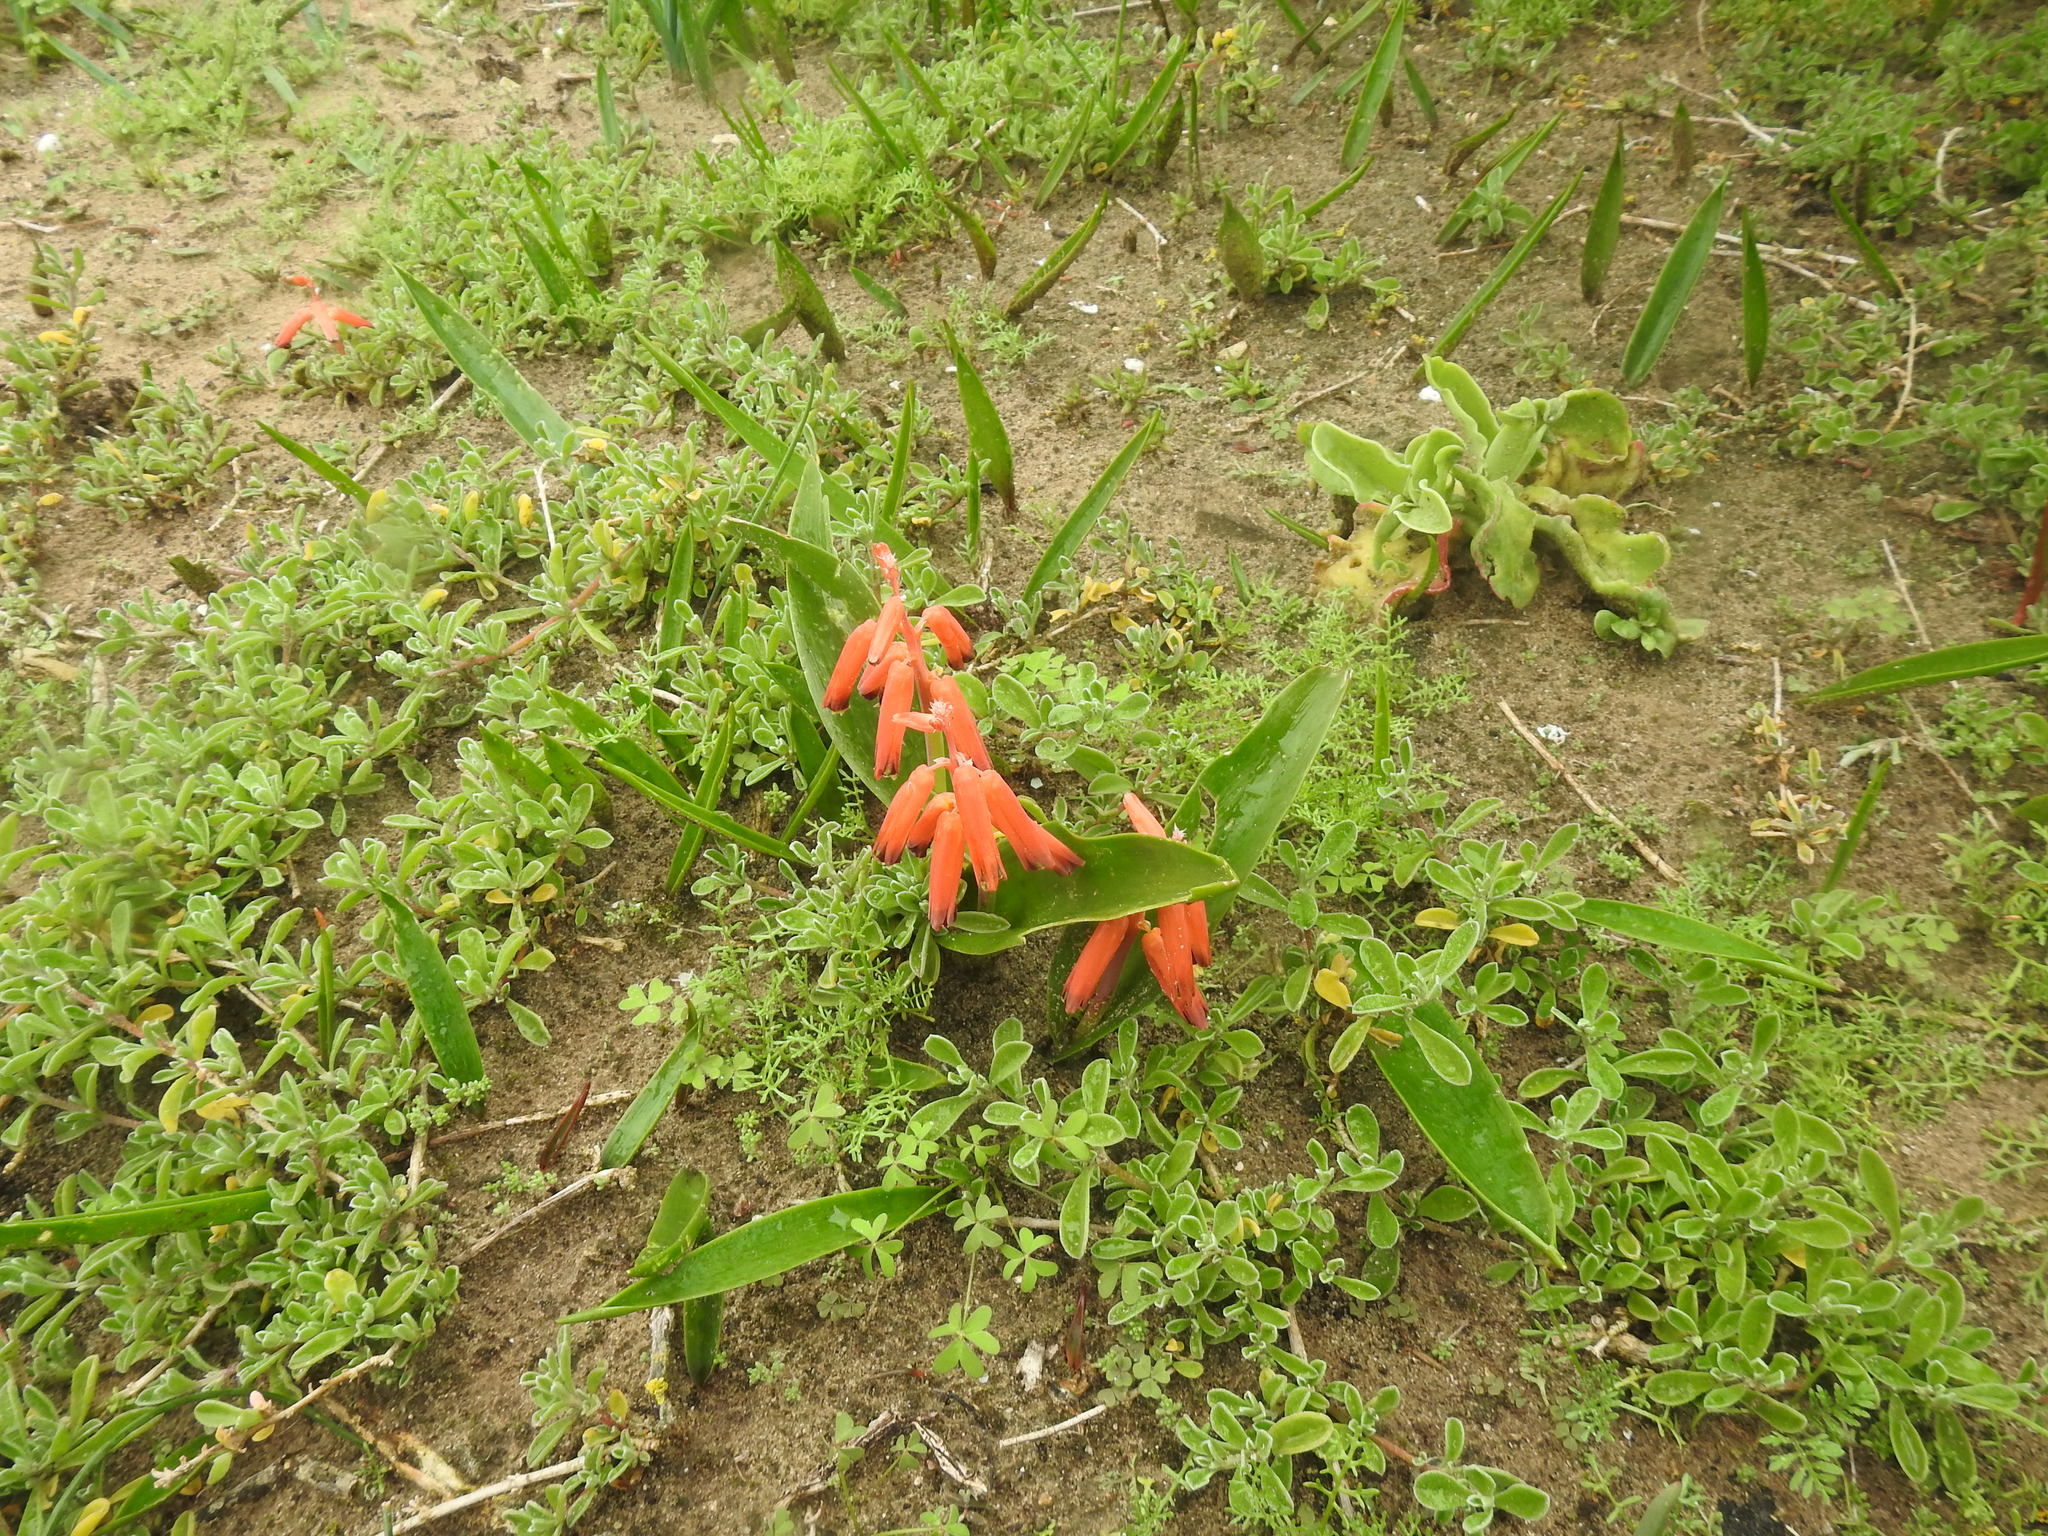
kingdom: Plantae
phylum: Tracheophyta
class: Liliopsida
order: Asparagales
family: Asparagaceae
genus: Lachenalia
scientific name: Lachenalia bulbifera
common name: Red lachenalia
